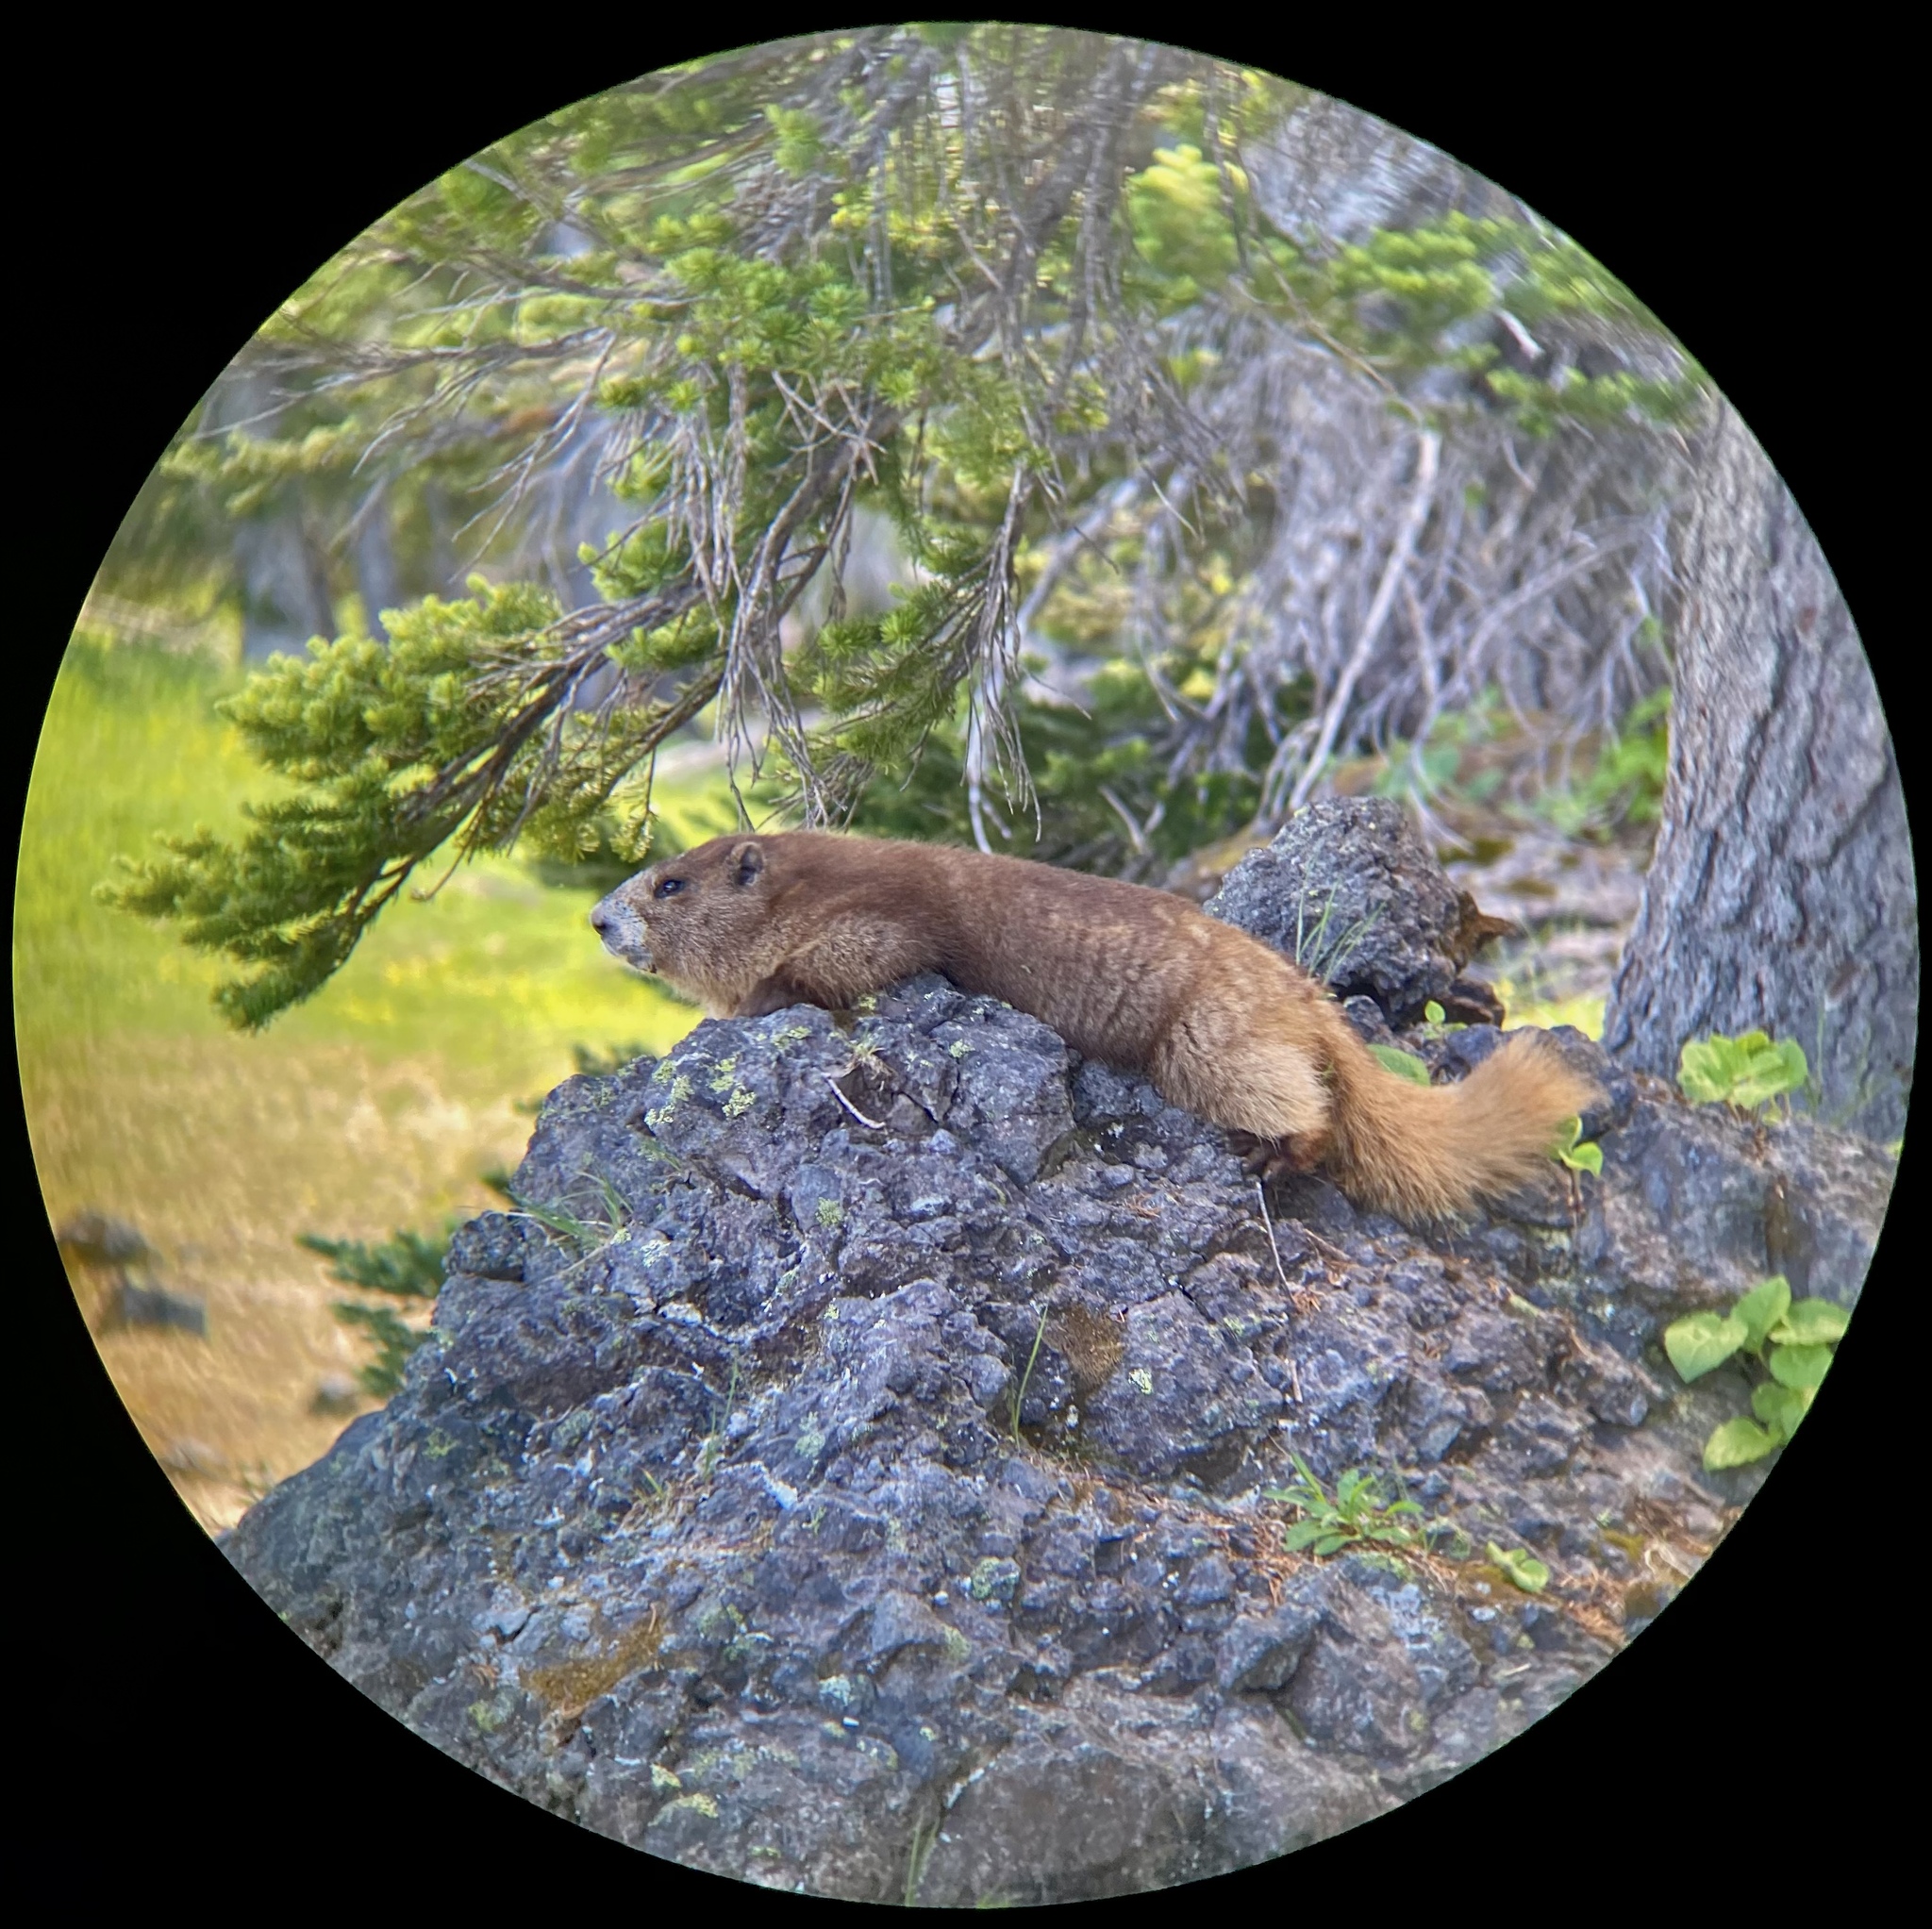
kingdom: Animalia
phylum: Chordata
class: Mammalia
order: Rodentia
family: Sciuridae
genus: Marmota
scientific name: Marmota olympus
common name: Olympic marmot
